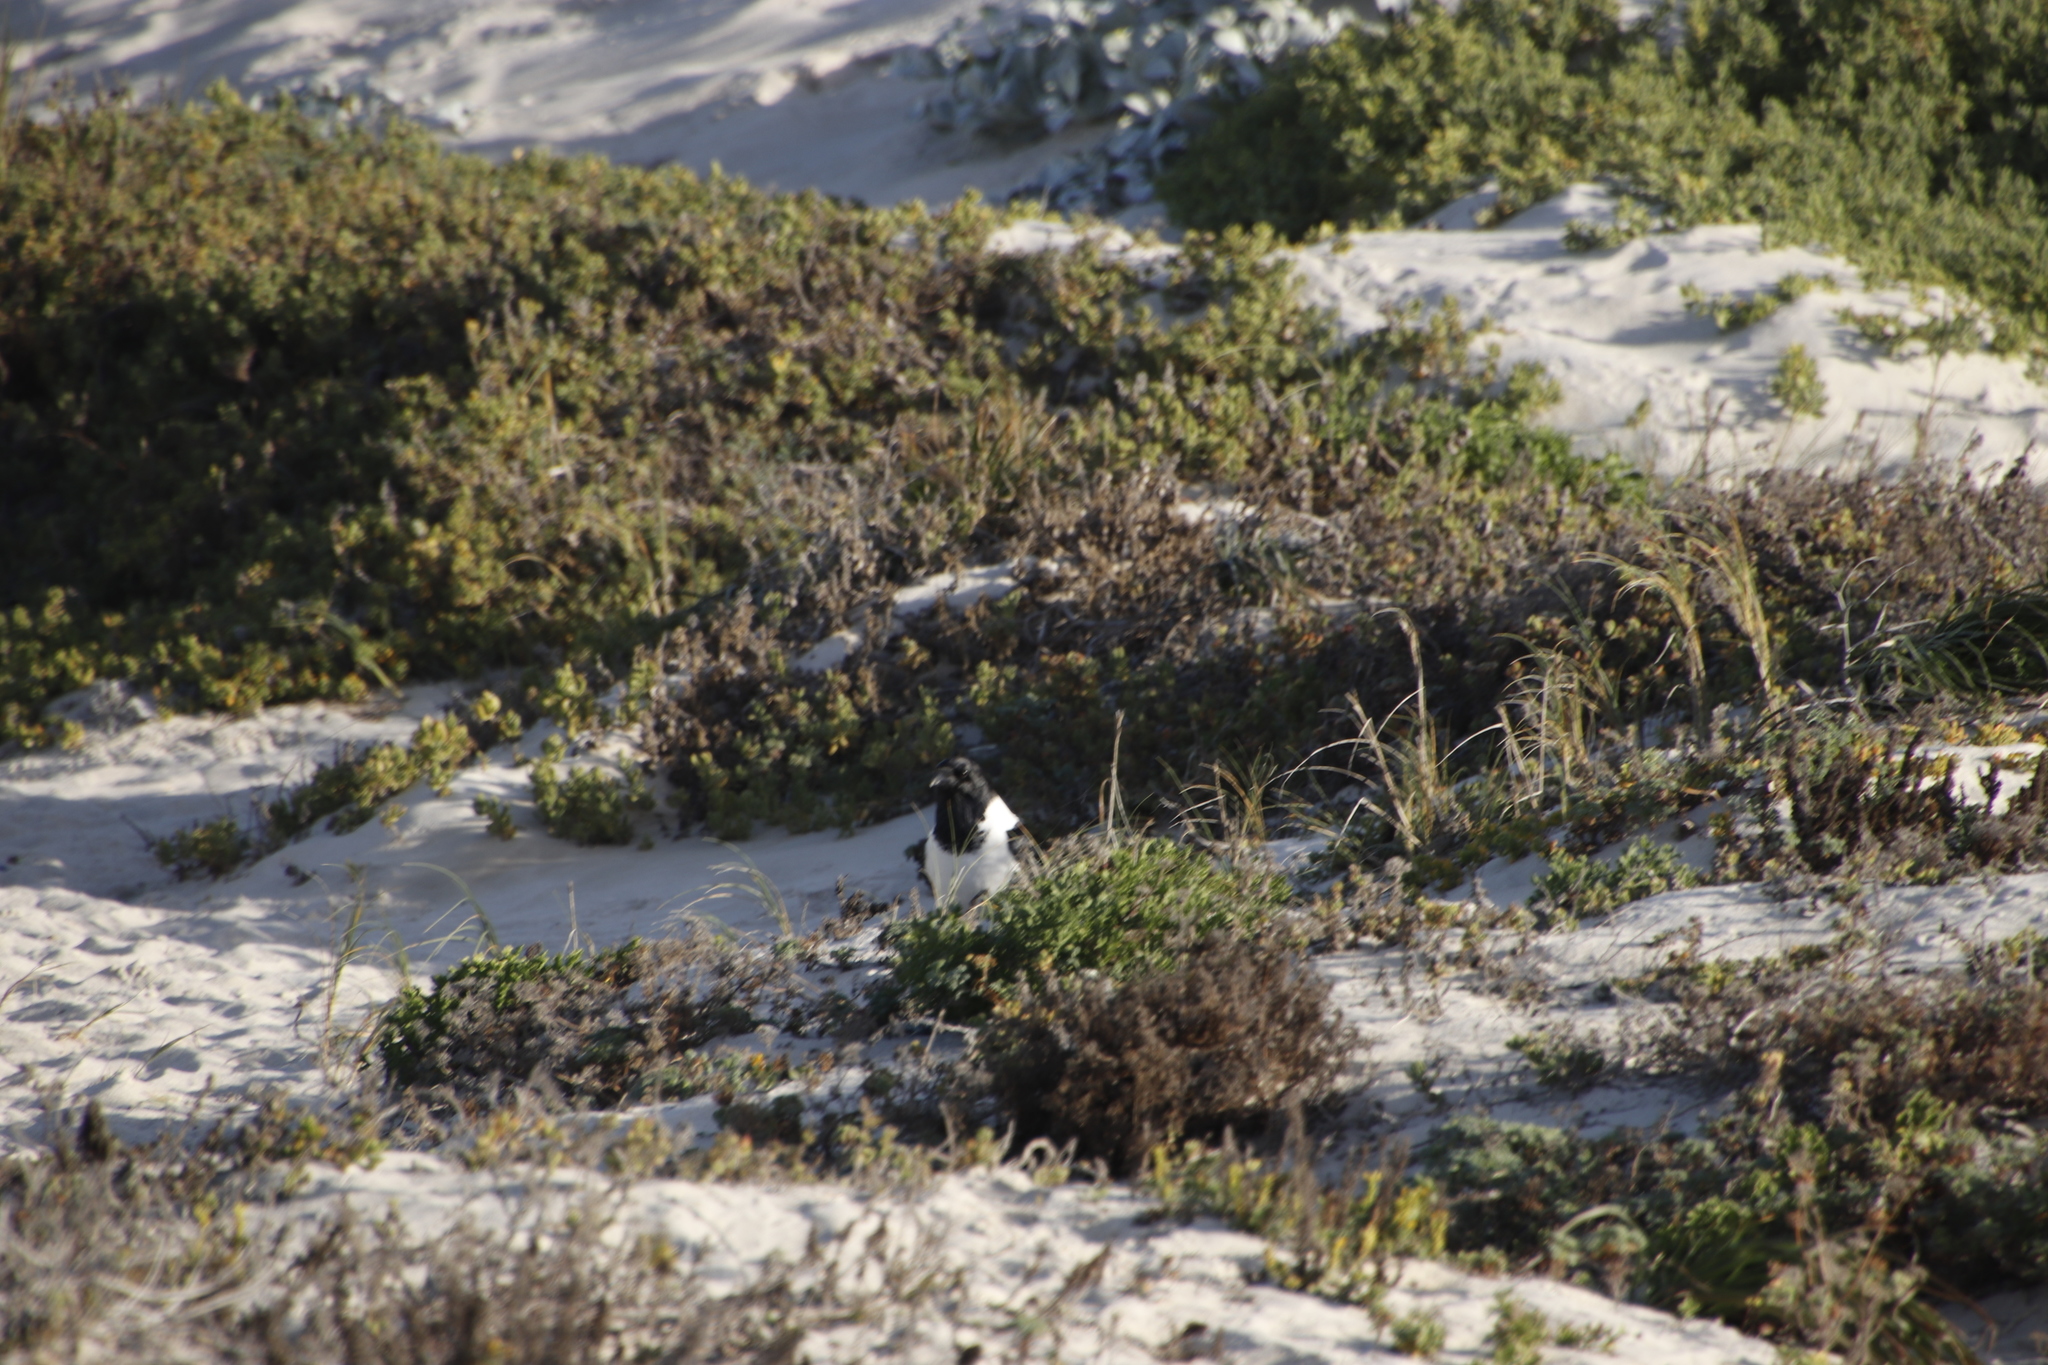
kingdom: Animalia
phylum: Chordata
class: Aves
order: Passeriformes
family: Corvidae
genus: Corvus
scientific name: Corvus albus
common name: Pied crow
